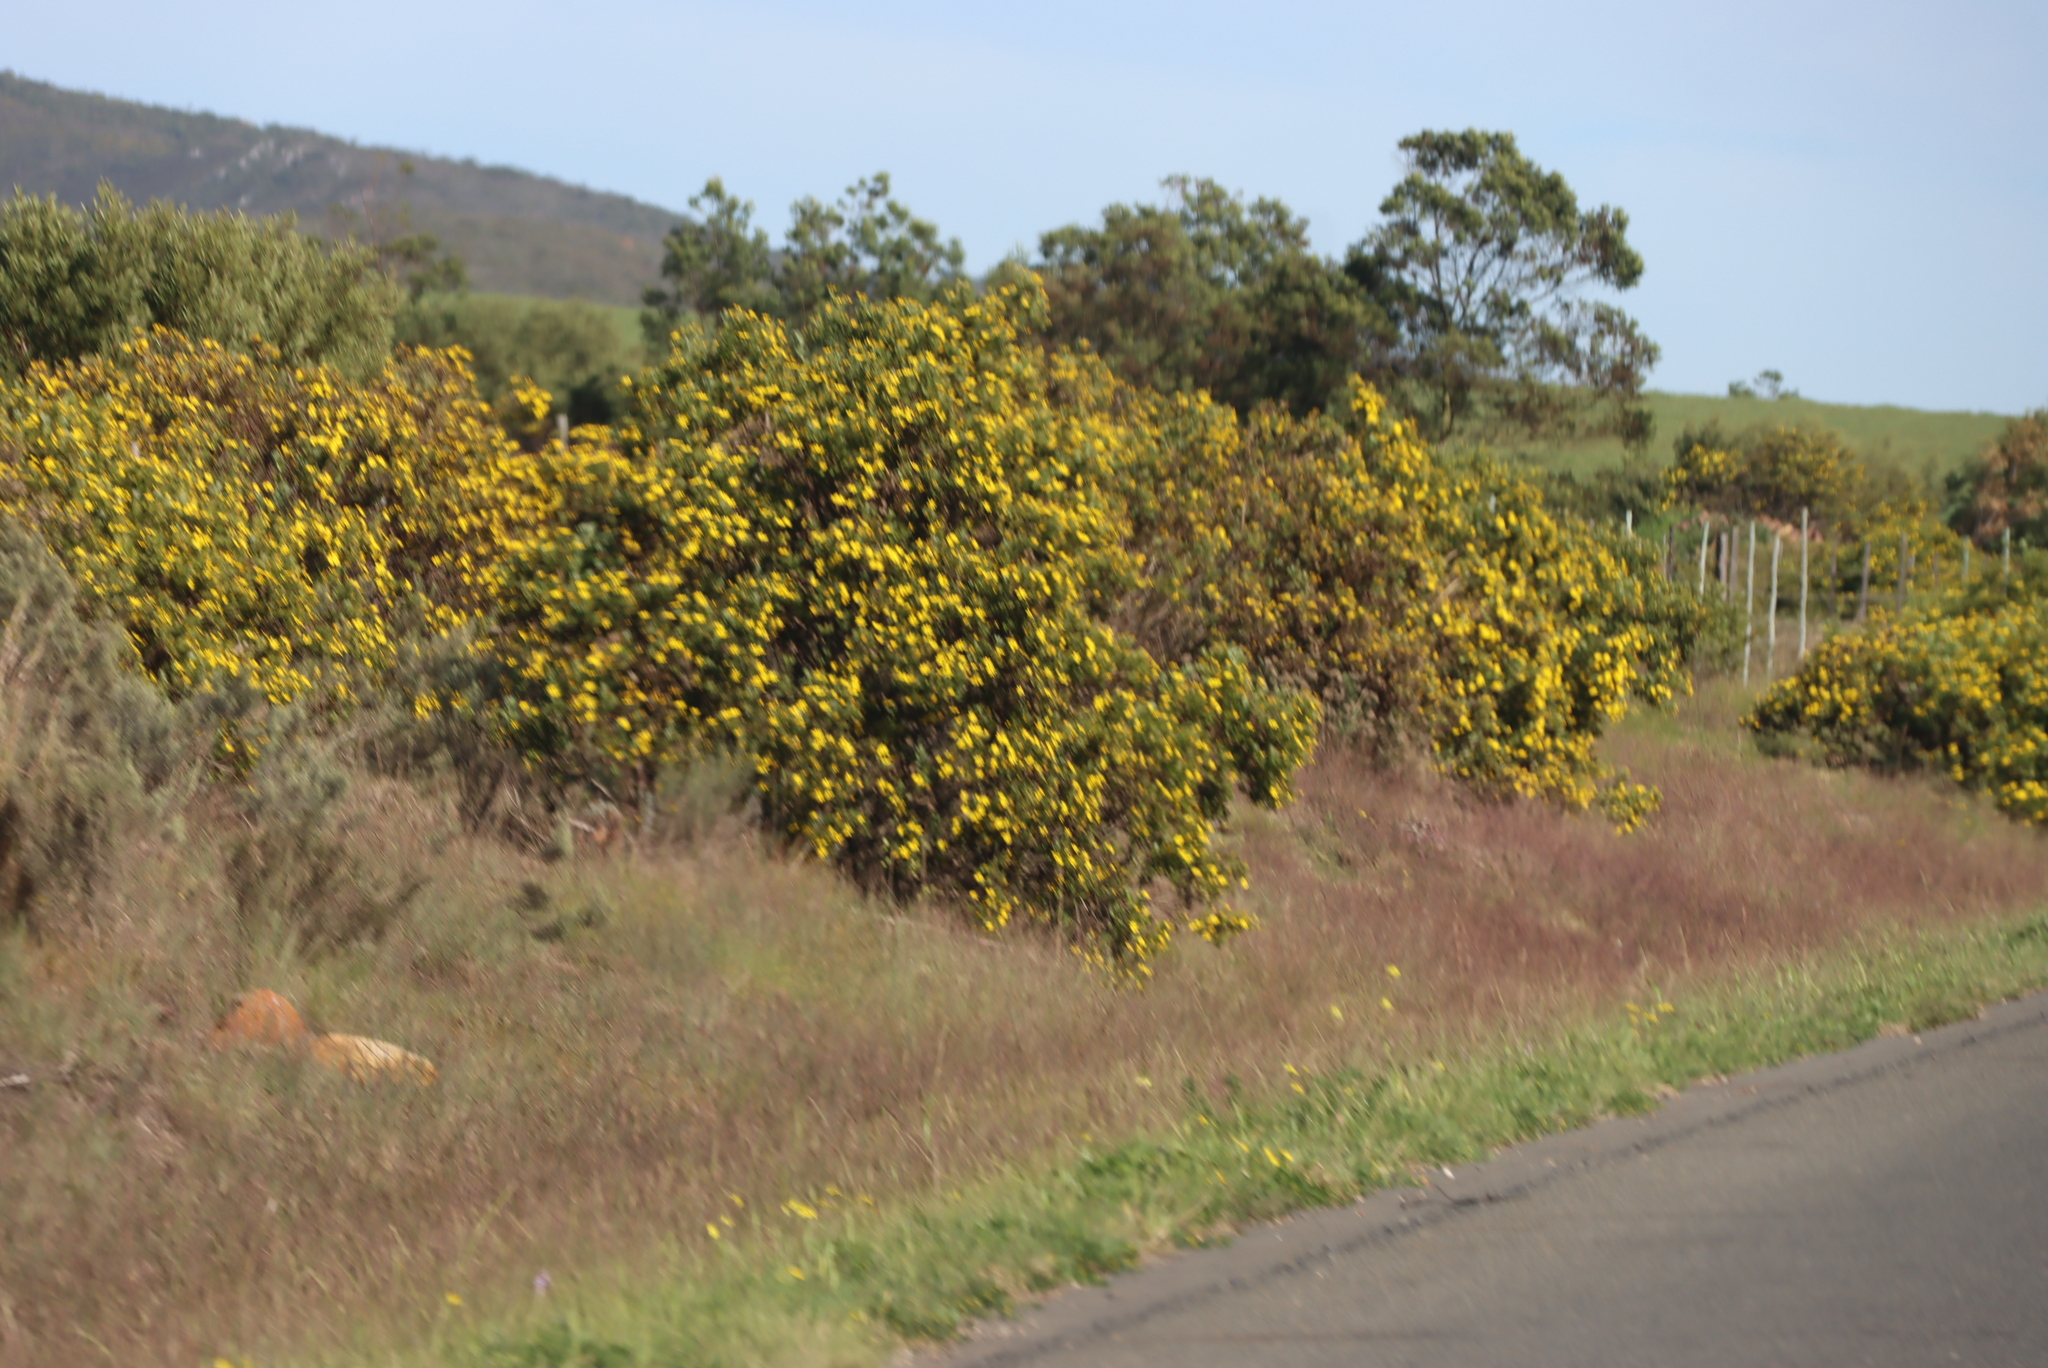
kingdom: Plantae
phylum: Tracheophyta
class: Magnoliopsida
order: Asterales
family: Asteraceae
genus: Osteospermum
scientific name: Osteospermum moniliferum
